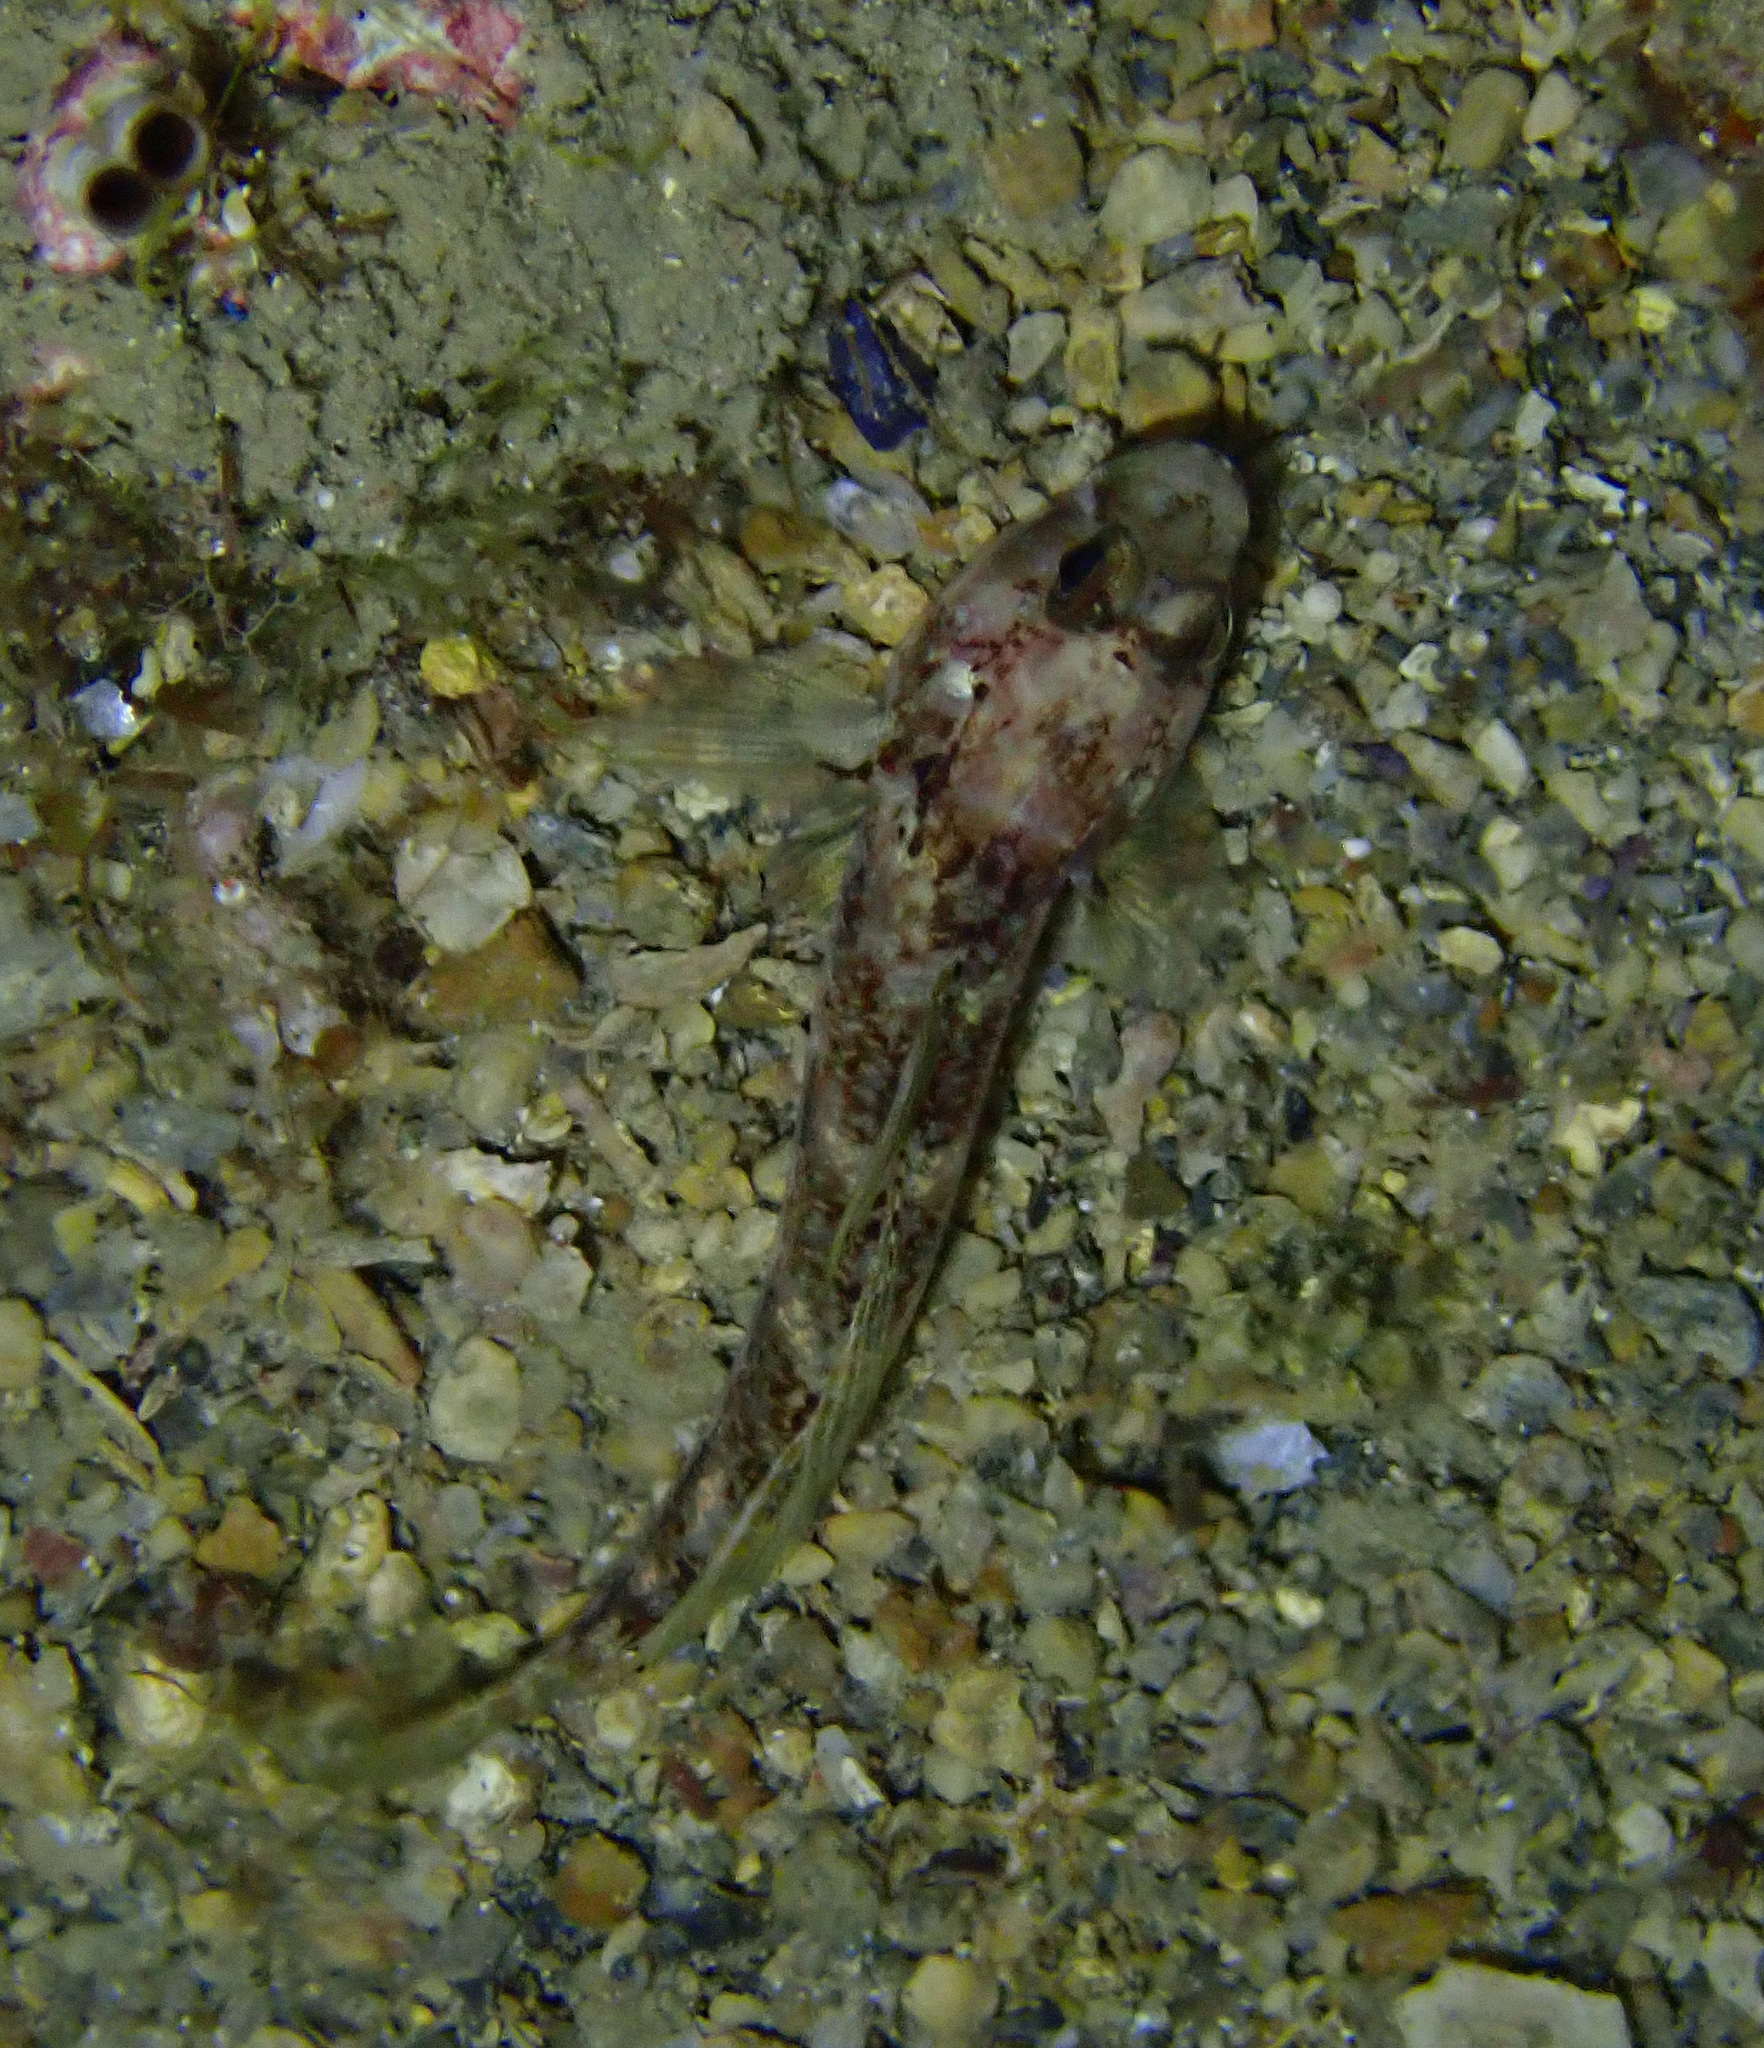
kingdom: Animalia
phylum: Chordata
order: Perciformes
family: Gobiidae
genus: Gobius
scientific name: Gobius roulei
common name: Roule's goby
